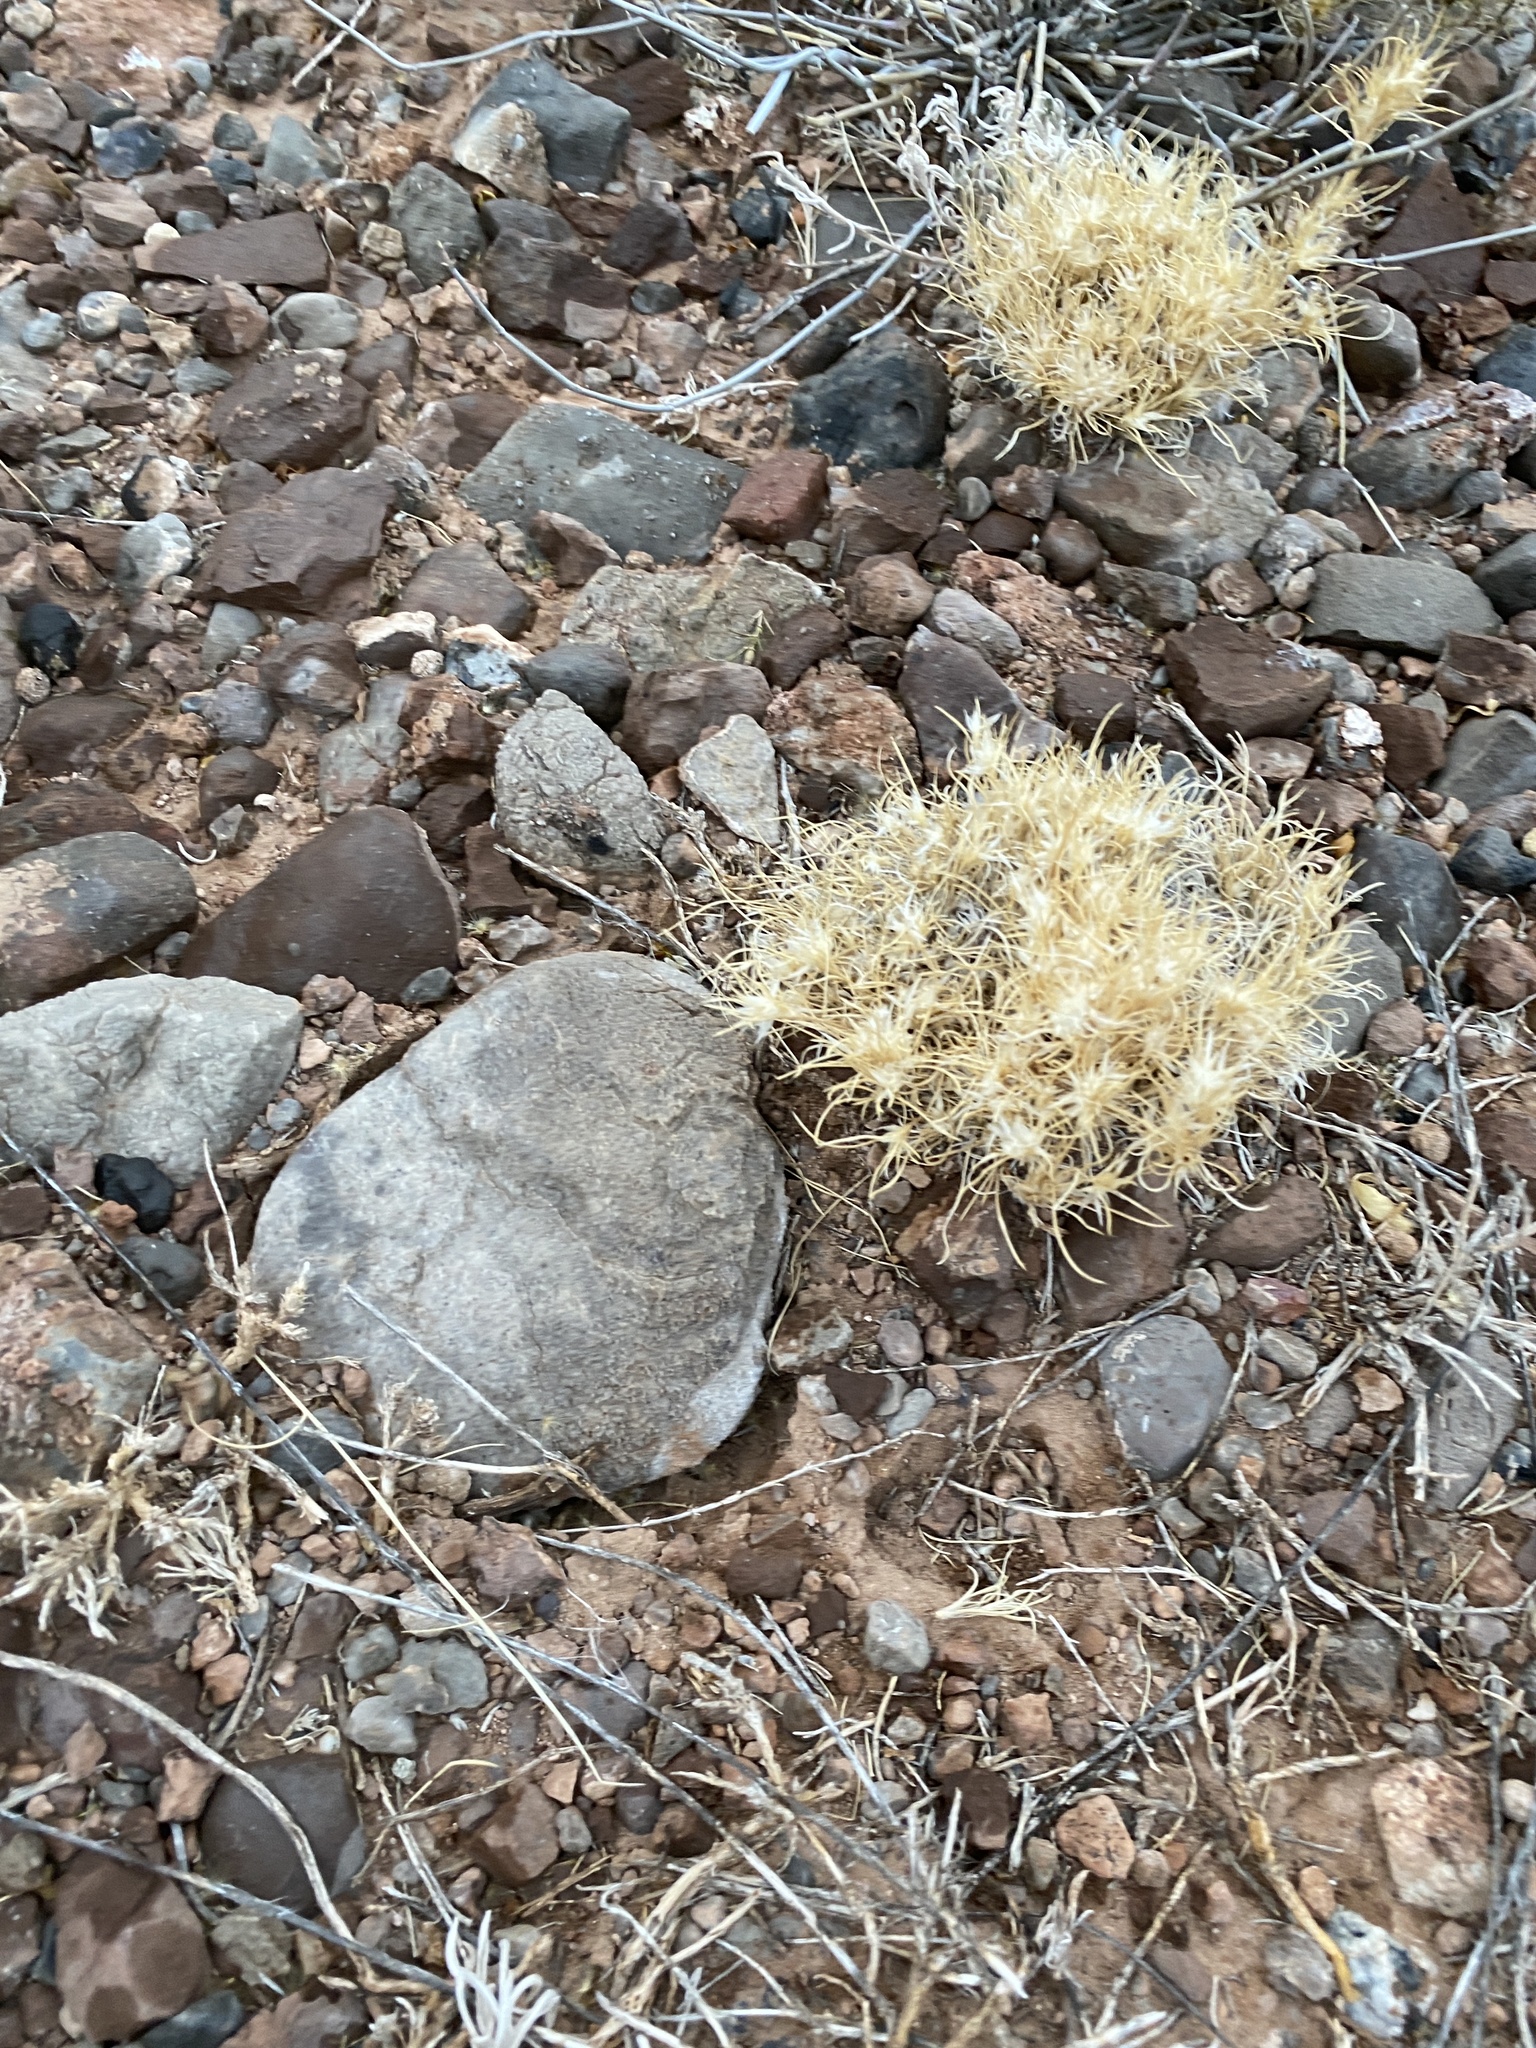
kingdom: Plantae
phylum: Tracheophyta
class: Liliopsida
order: Poales
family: Poaceae
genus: Dasyochloa
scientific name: Dasyochloa pulchella
